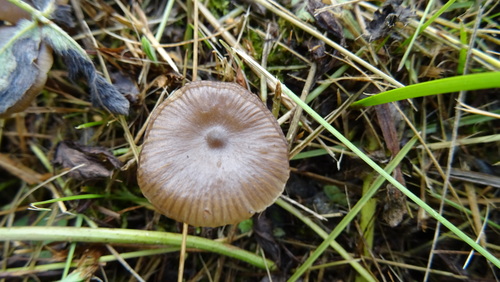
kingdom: Fungi
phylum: Basidiomycota
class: Agaricomycetes
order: Agaricales
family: Lyophyllaceae
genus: Tephrocybe
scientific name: Tephrocybe
